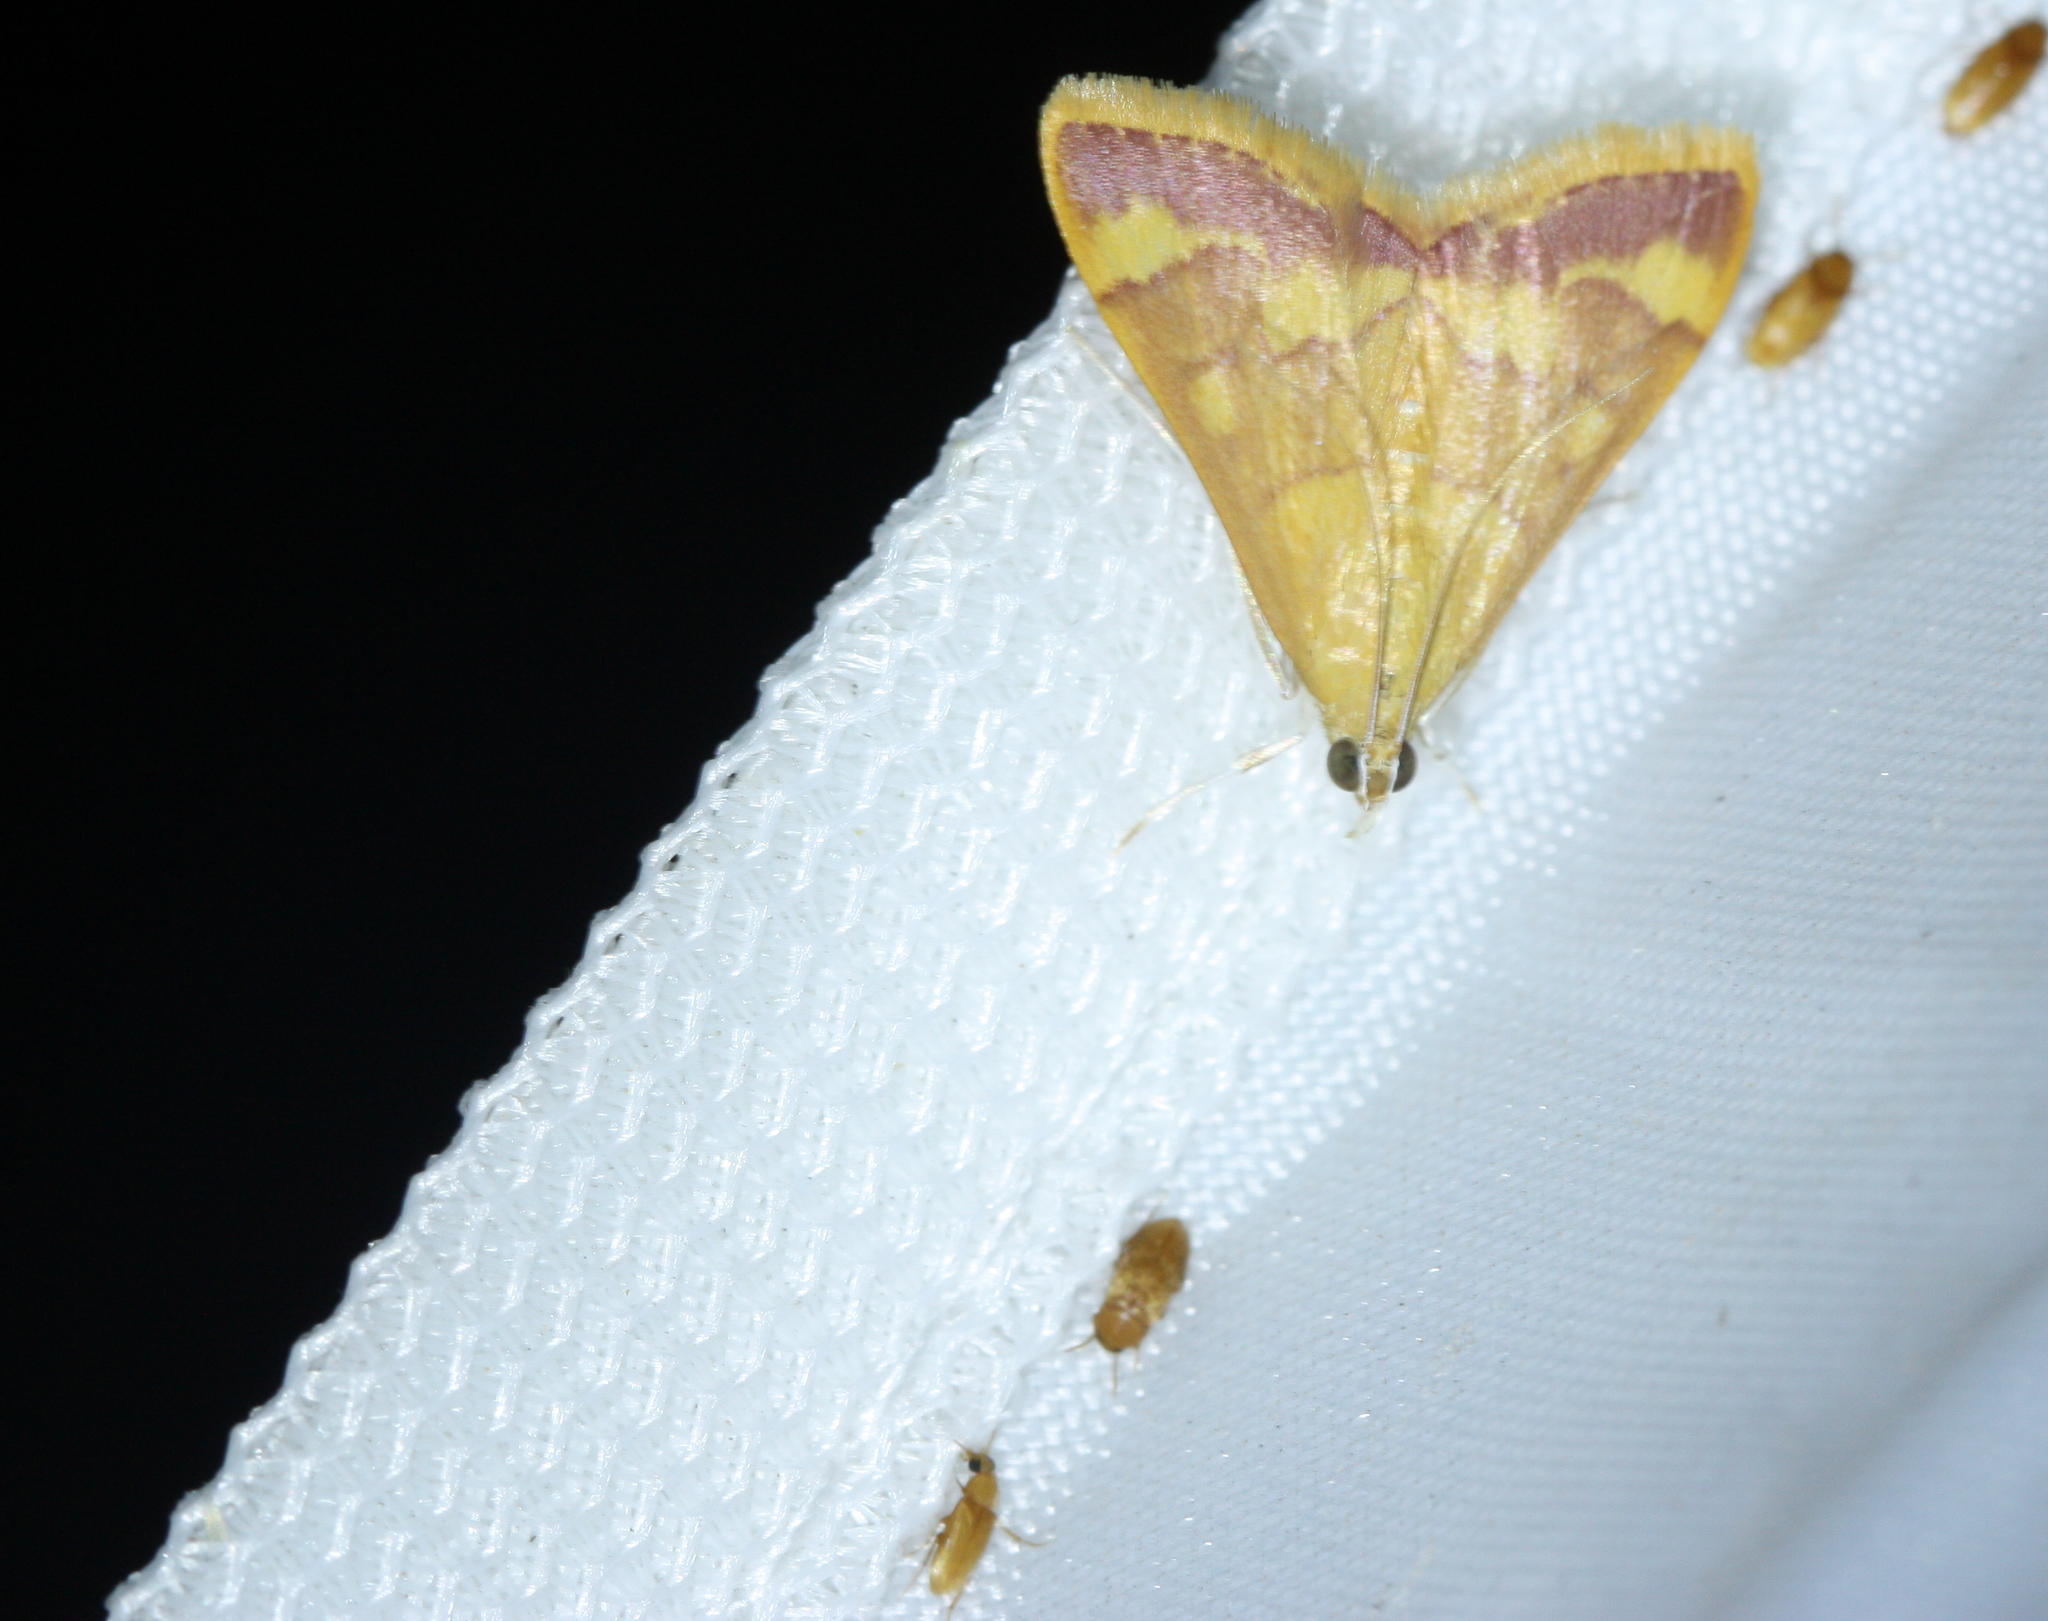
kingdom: Animalia
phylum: Arthropoda
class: Insecta
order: Lepidoptera
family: Crambidae
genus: Pyrausta
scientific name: Pyrausta pseudonythesalis
